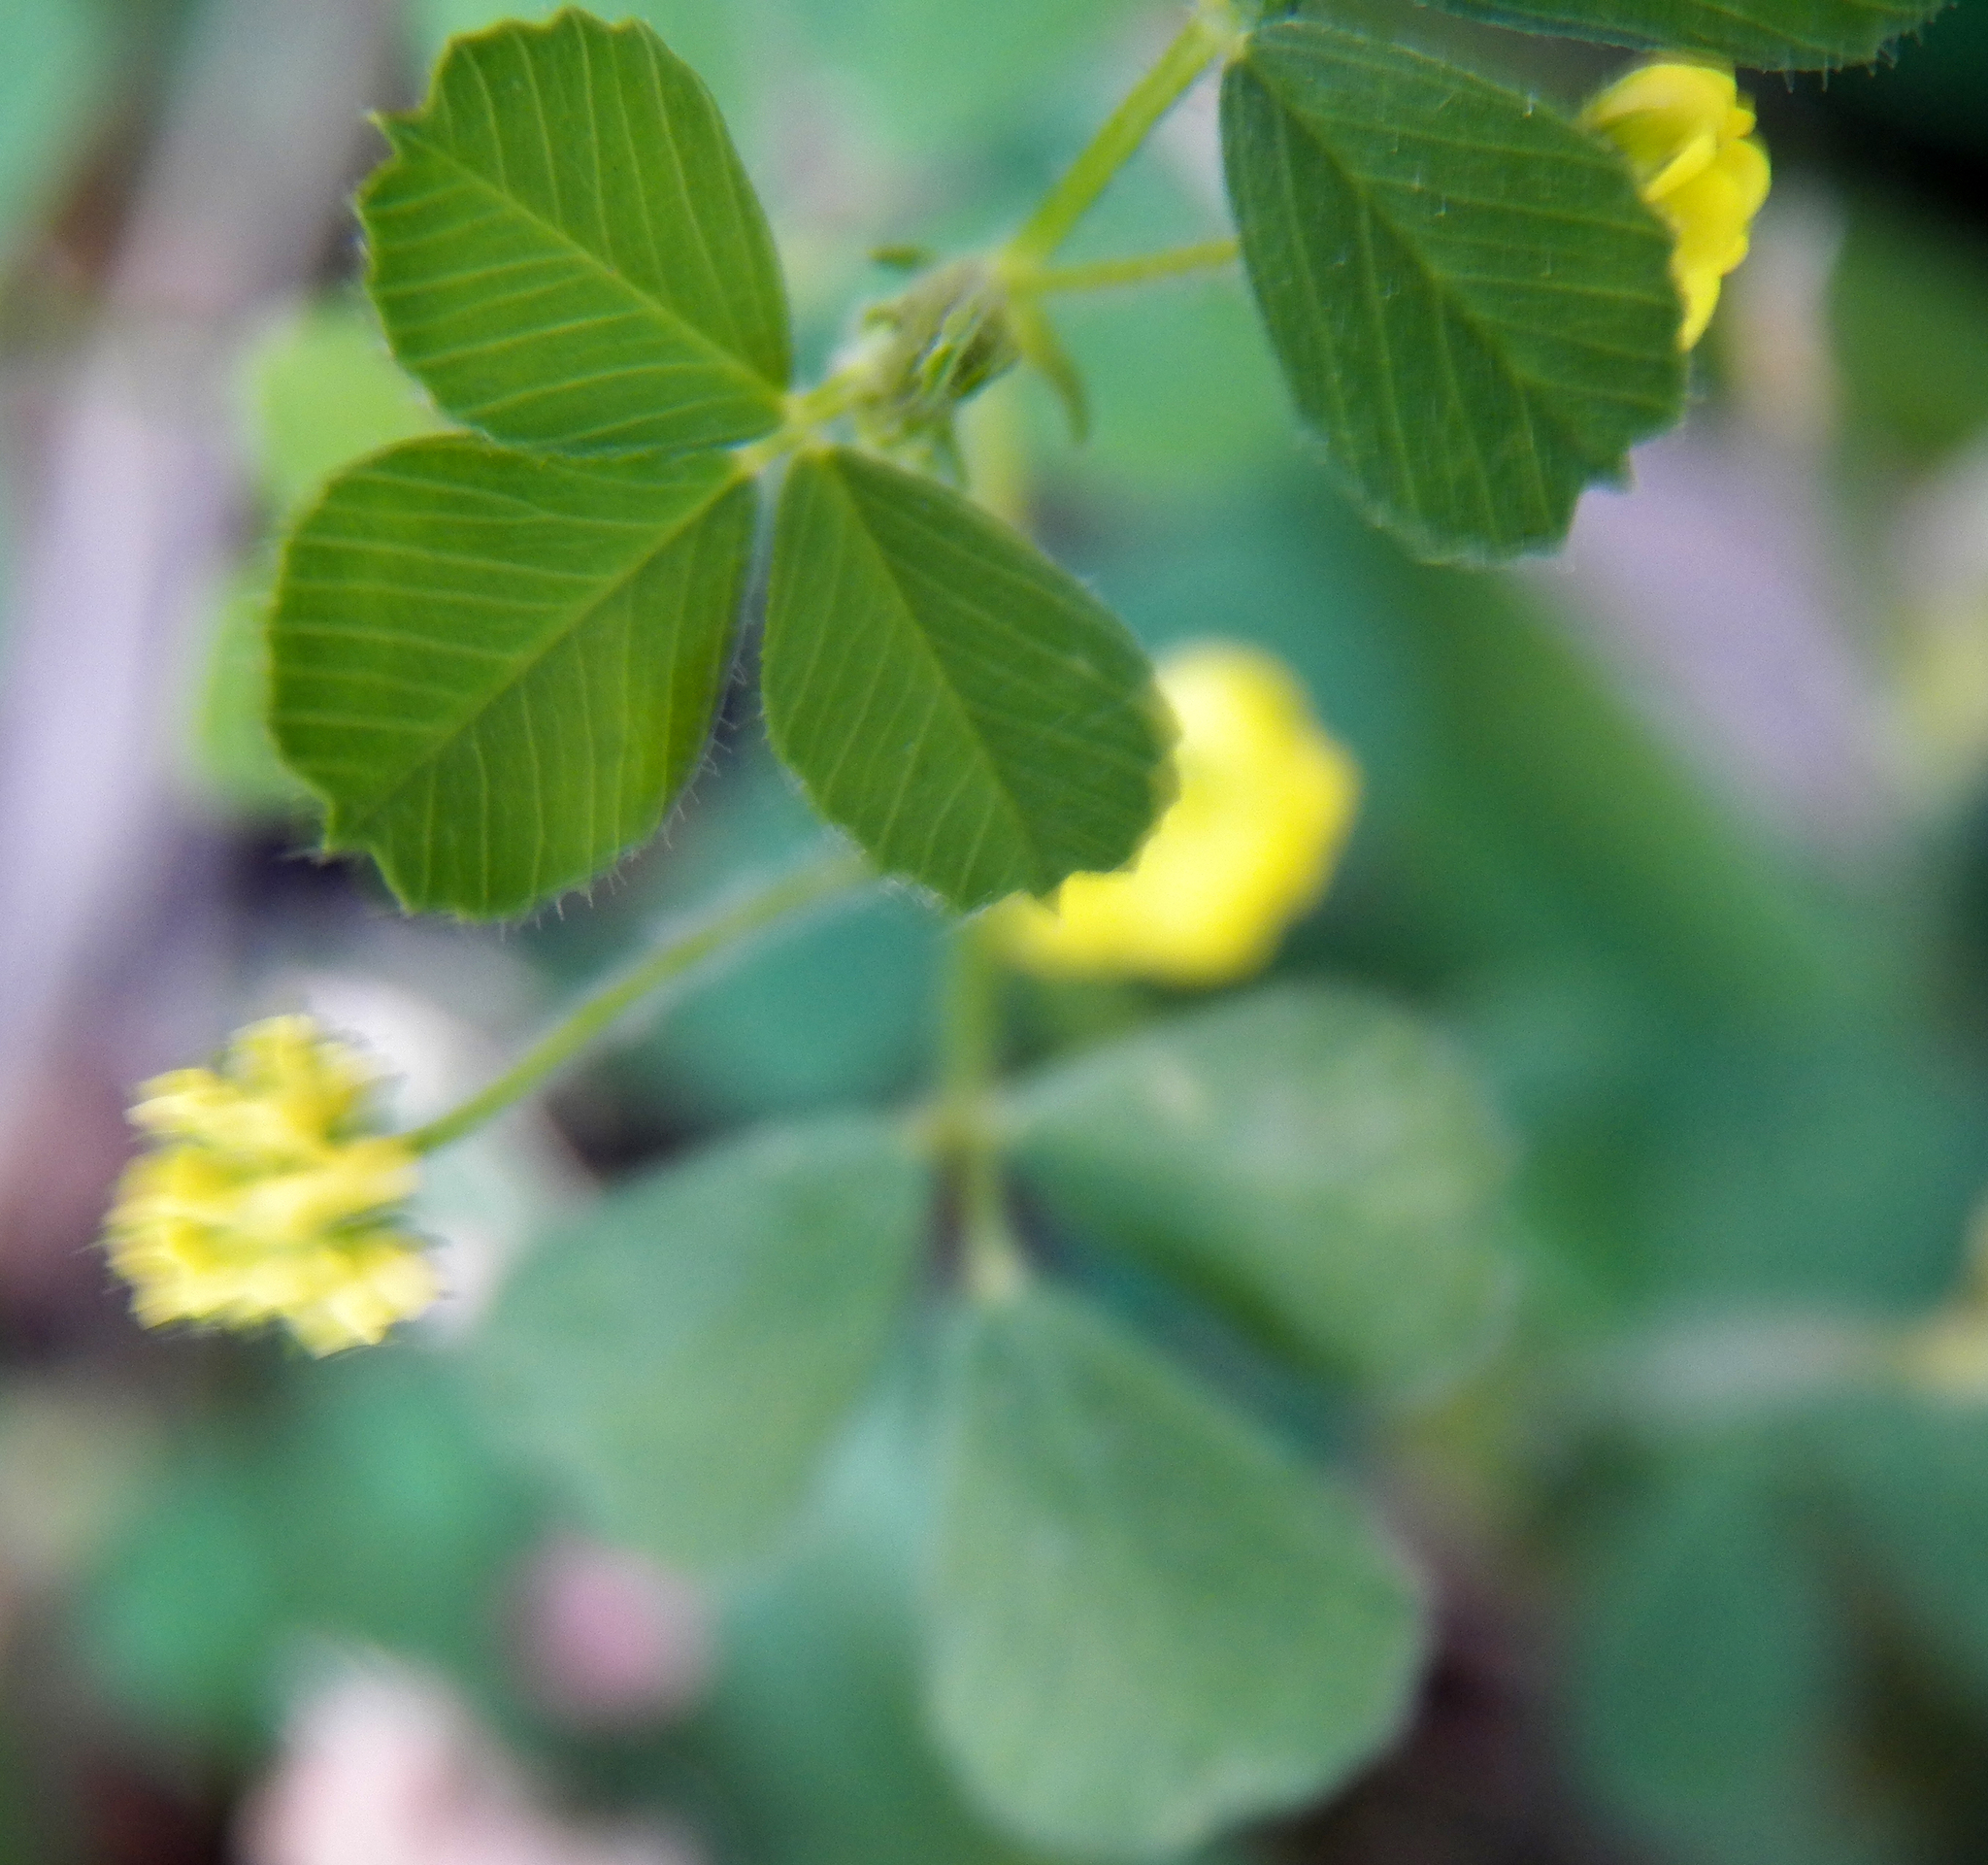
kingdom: Plantae
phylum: Tracheophyta
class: Magnoliopsida
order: Fabales
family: Fabaceae
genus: Medicago
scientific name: Medicago lupulina
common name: Black medick
